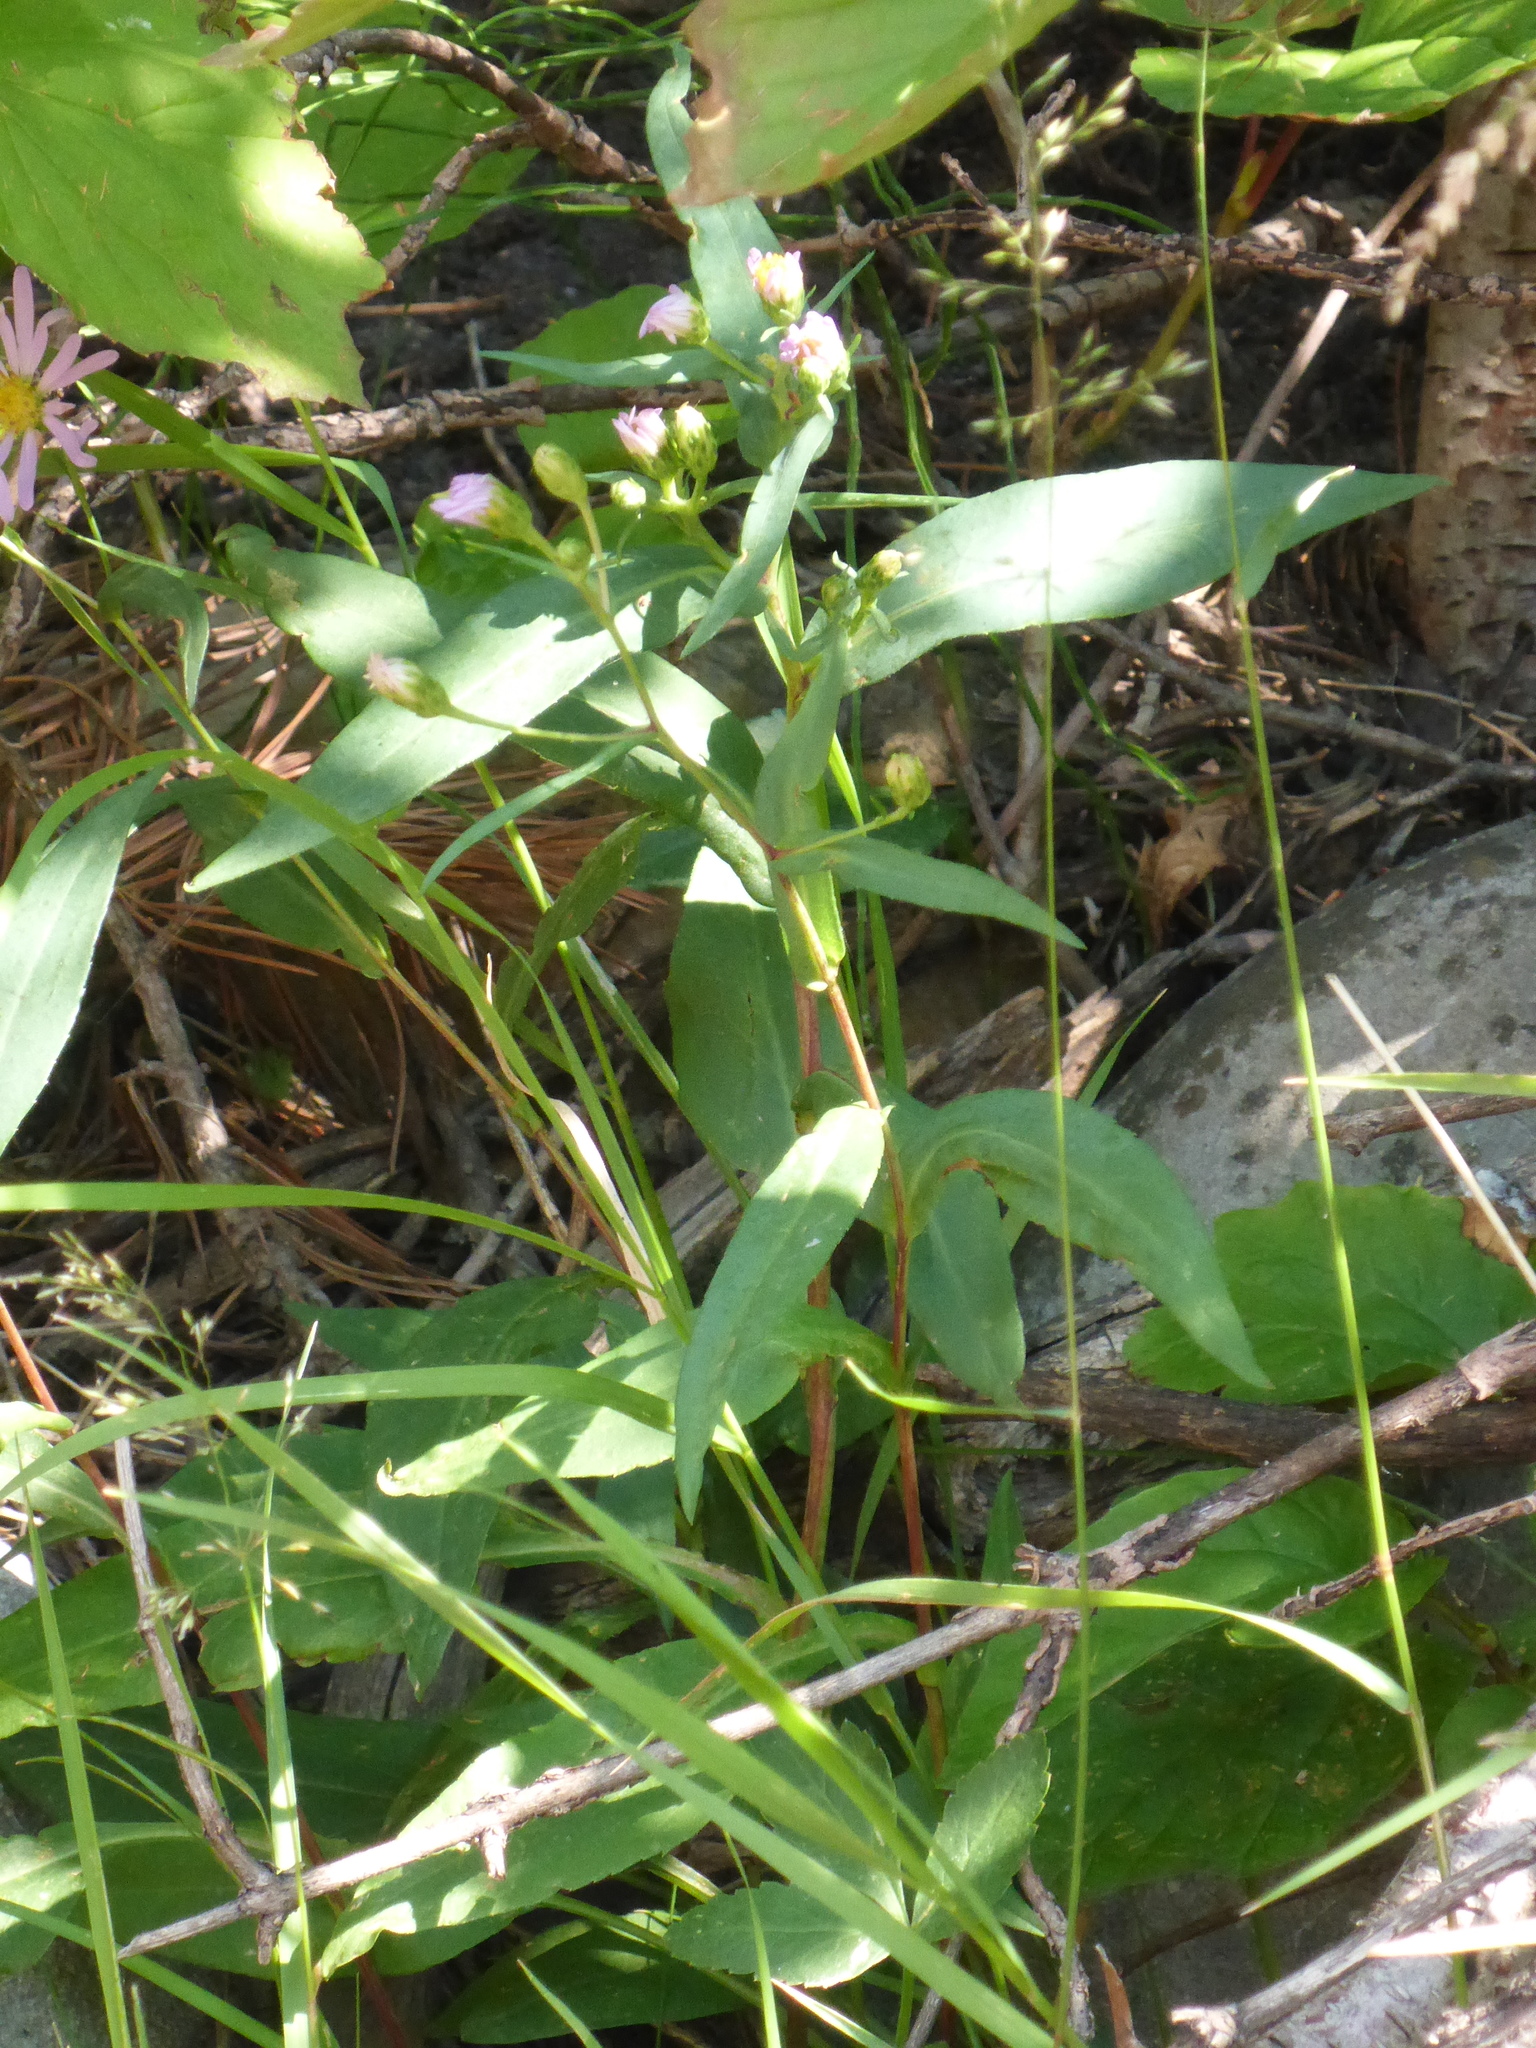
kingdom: Plantae
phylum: Tracheophyta
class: Magnoliopsida
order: Asterales
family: Asteraceae
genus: Symphyotrichum
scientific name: Symphyotrichum laeve
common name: Glaucous aster
